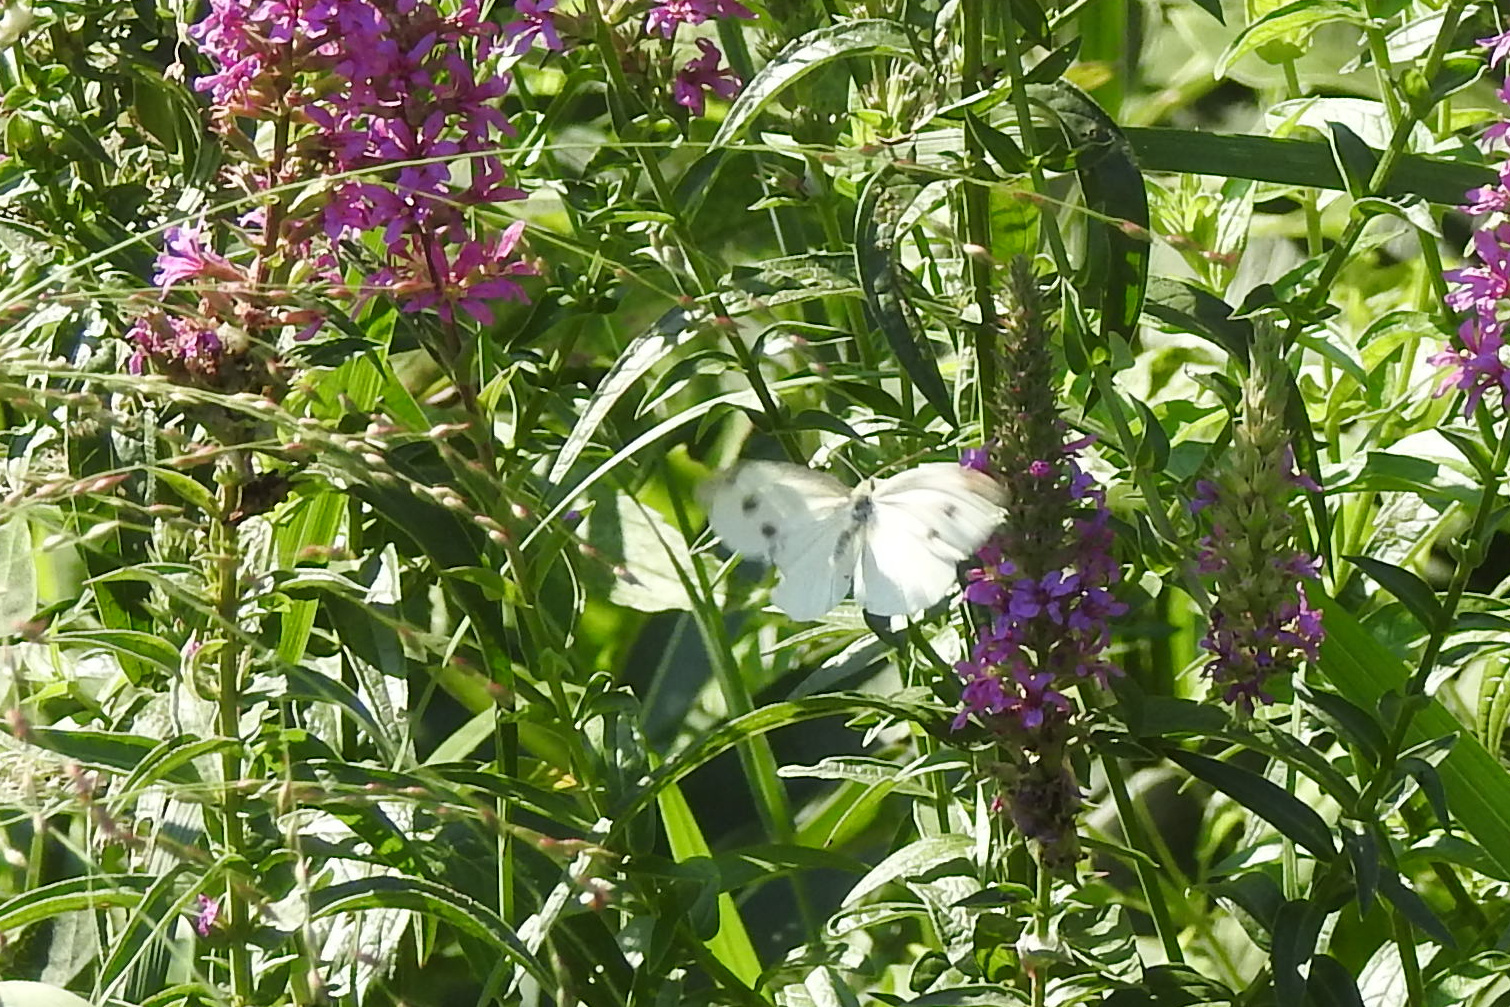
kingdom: Animalia
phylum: Arthropoda
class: Insecta
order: Lepidoptera
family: Pieridae
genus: Pieris
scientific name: Pieris rapae
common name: Small white
